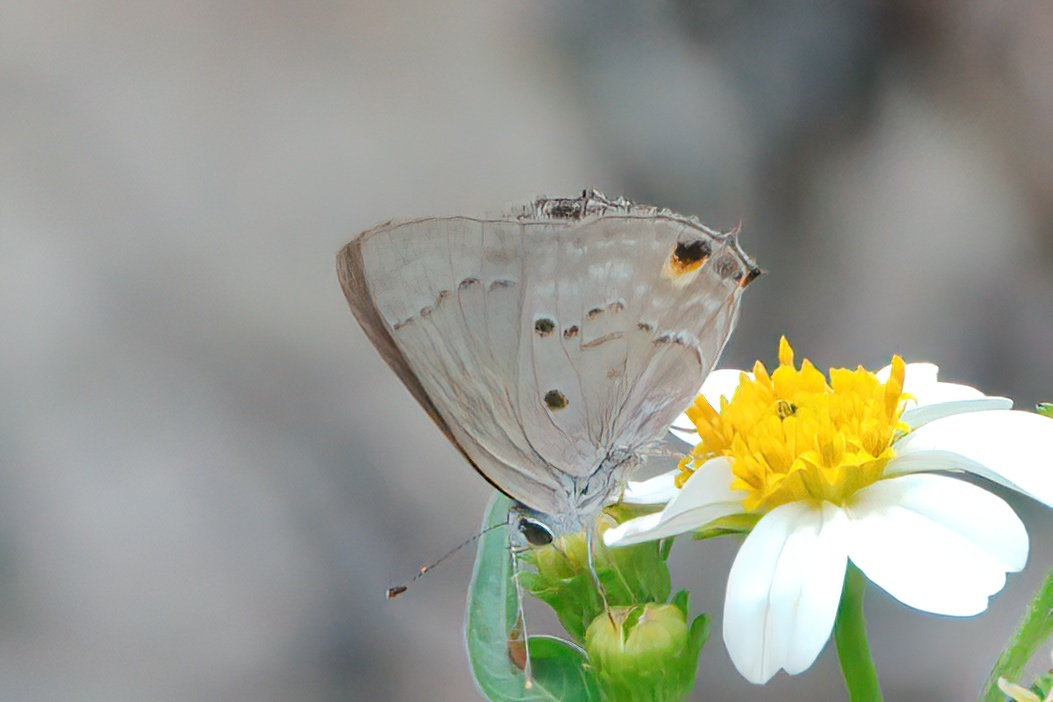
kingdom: Animalia
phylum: Arthropoda
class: Insecta
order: Lepidoptera
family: Lycaenidae
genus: Callicista
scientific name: Callicista columella
